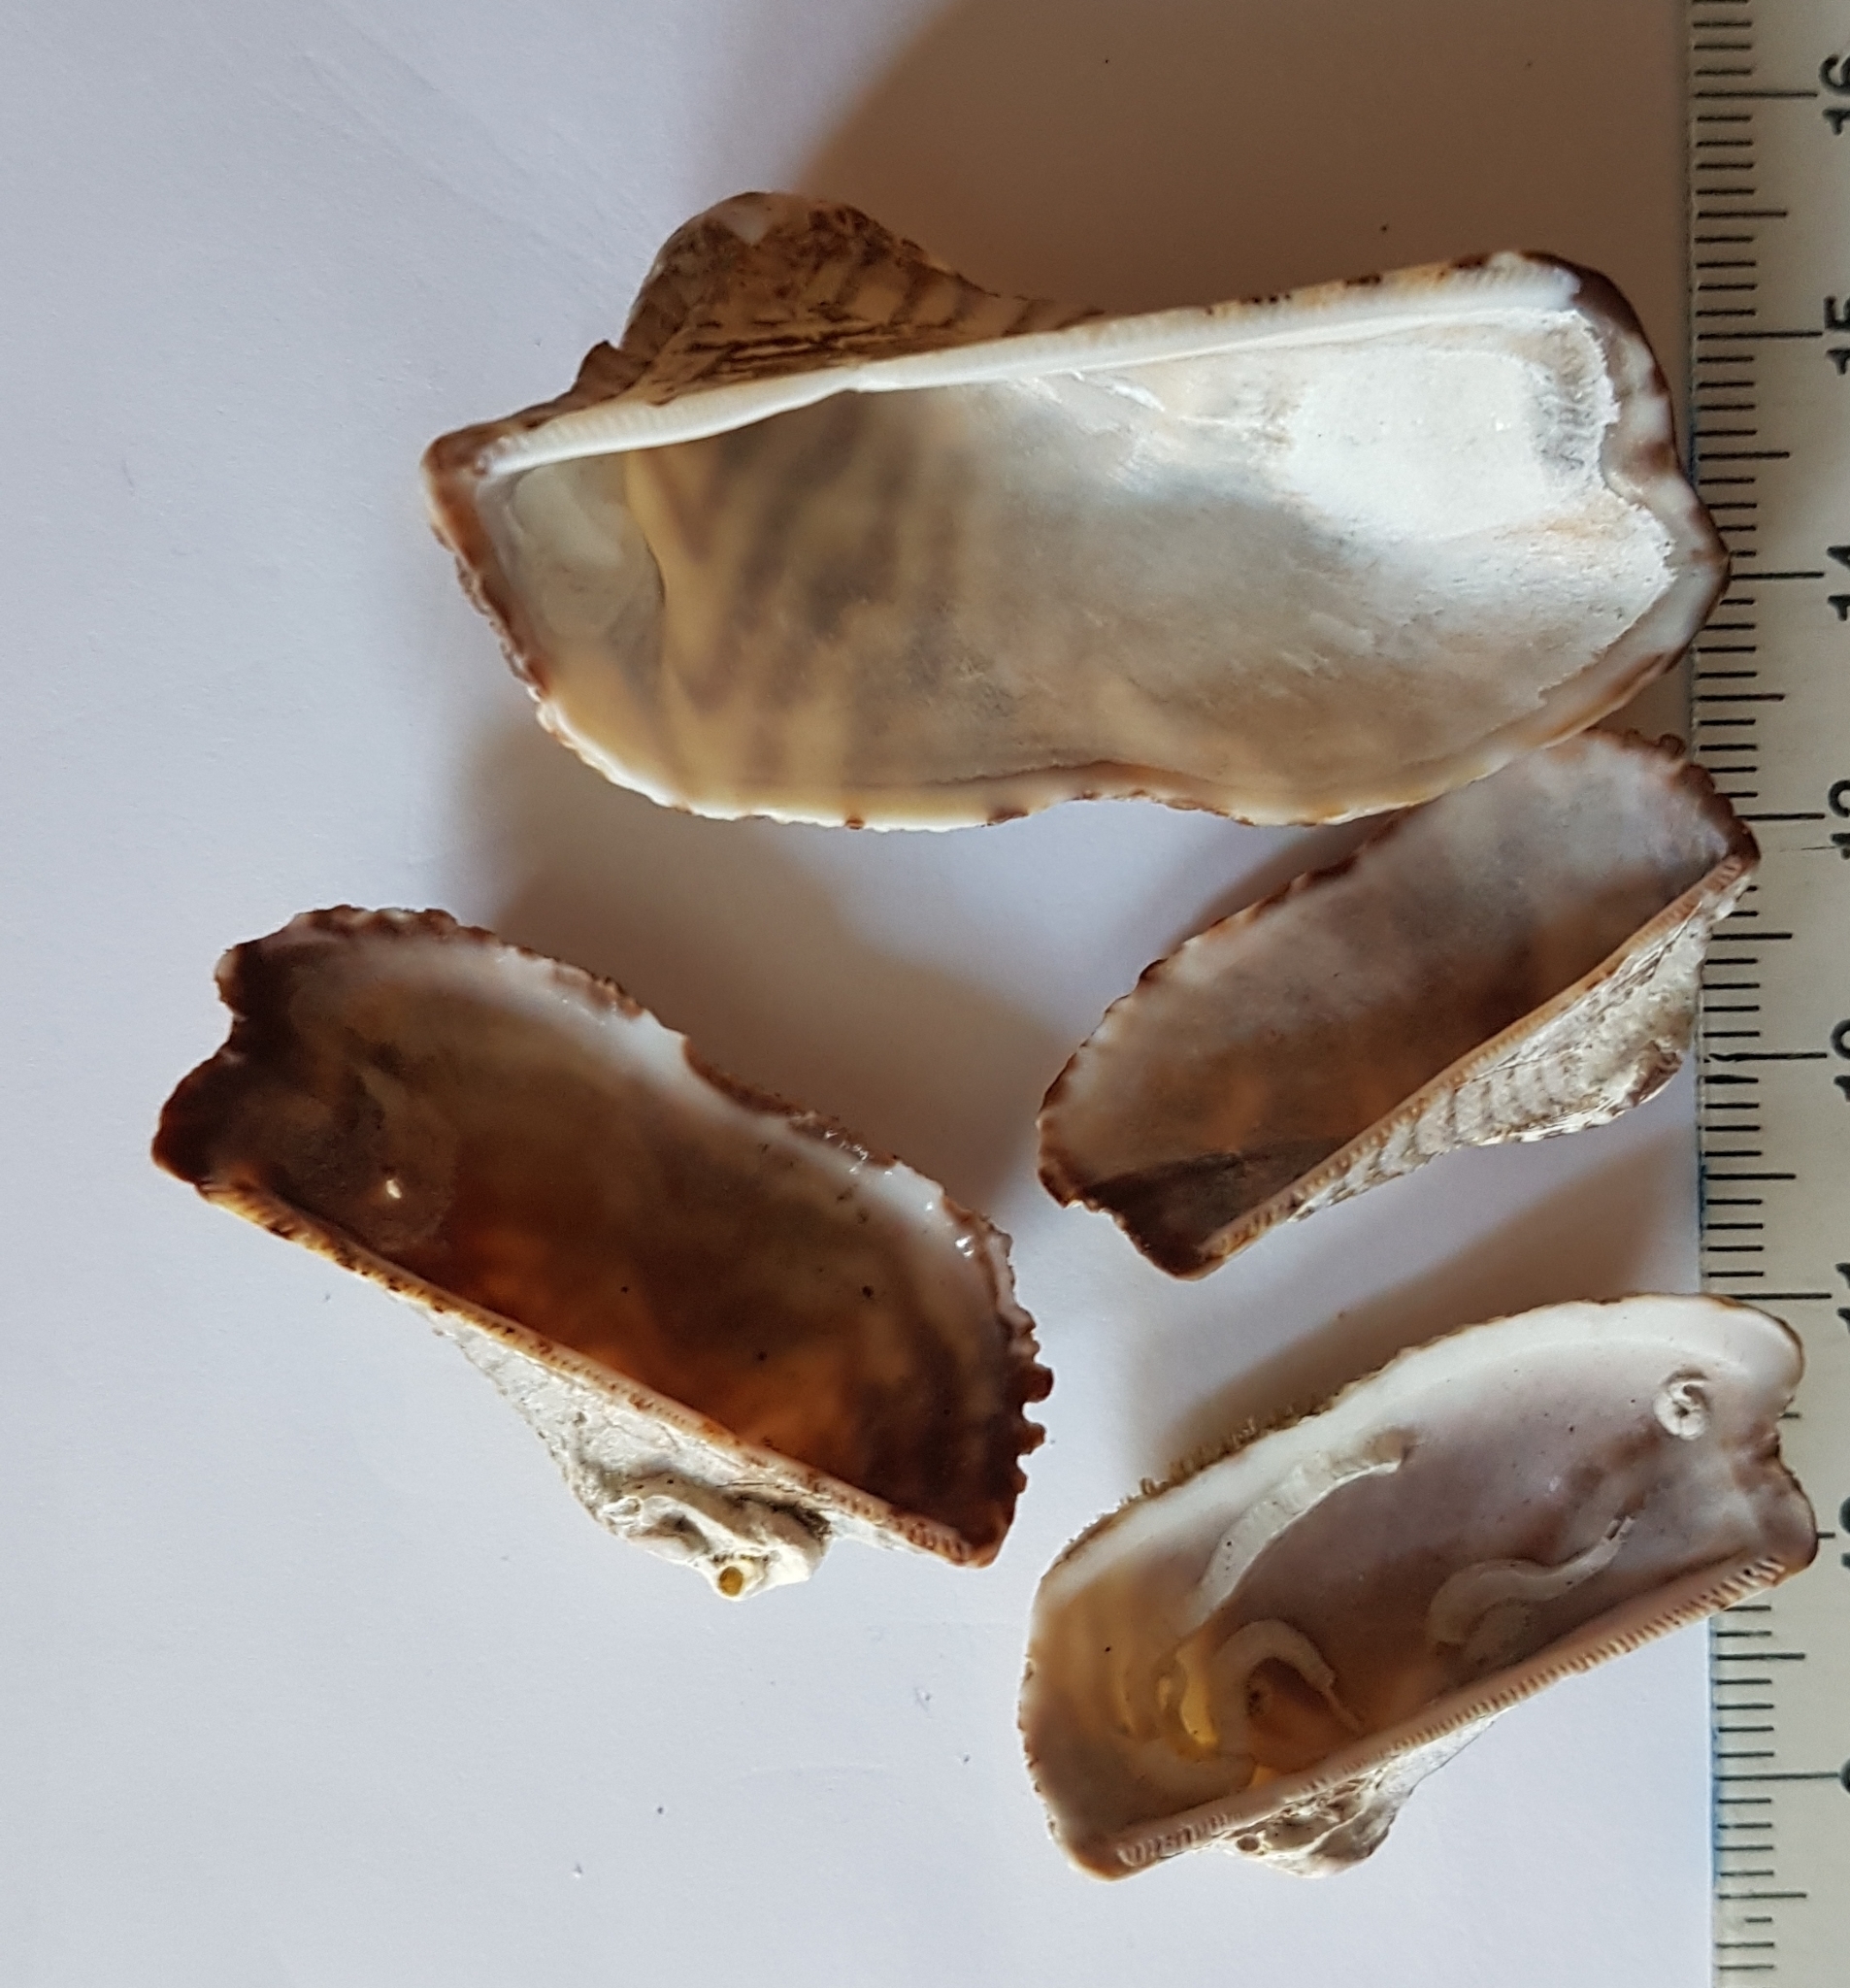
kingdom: Animalia
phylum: Mollusca
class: Bivalvia
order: Arcida
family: Arcidae
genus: Arca
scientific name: Arca noae
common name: Noah's arch
